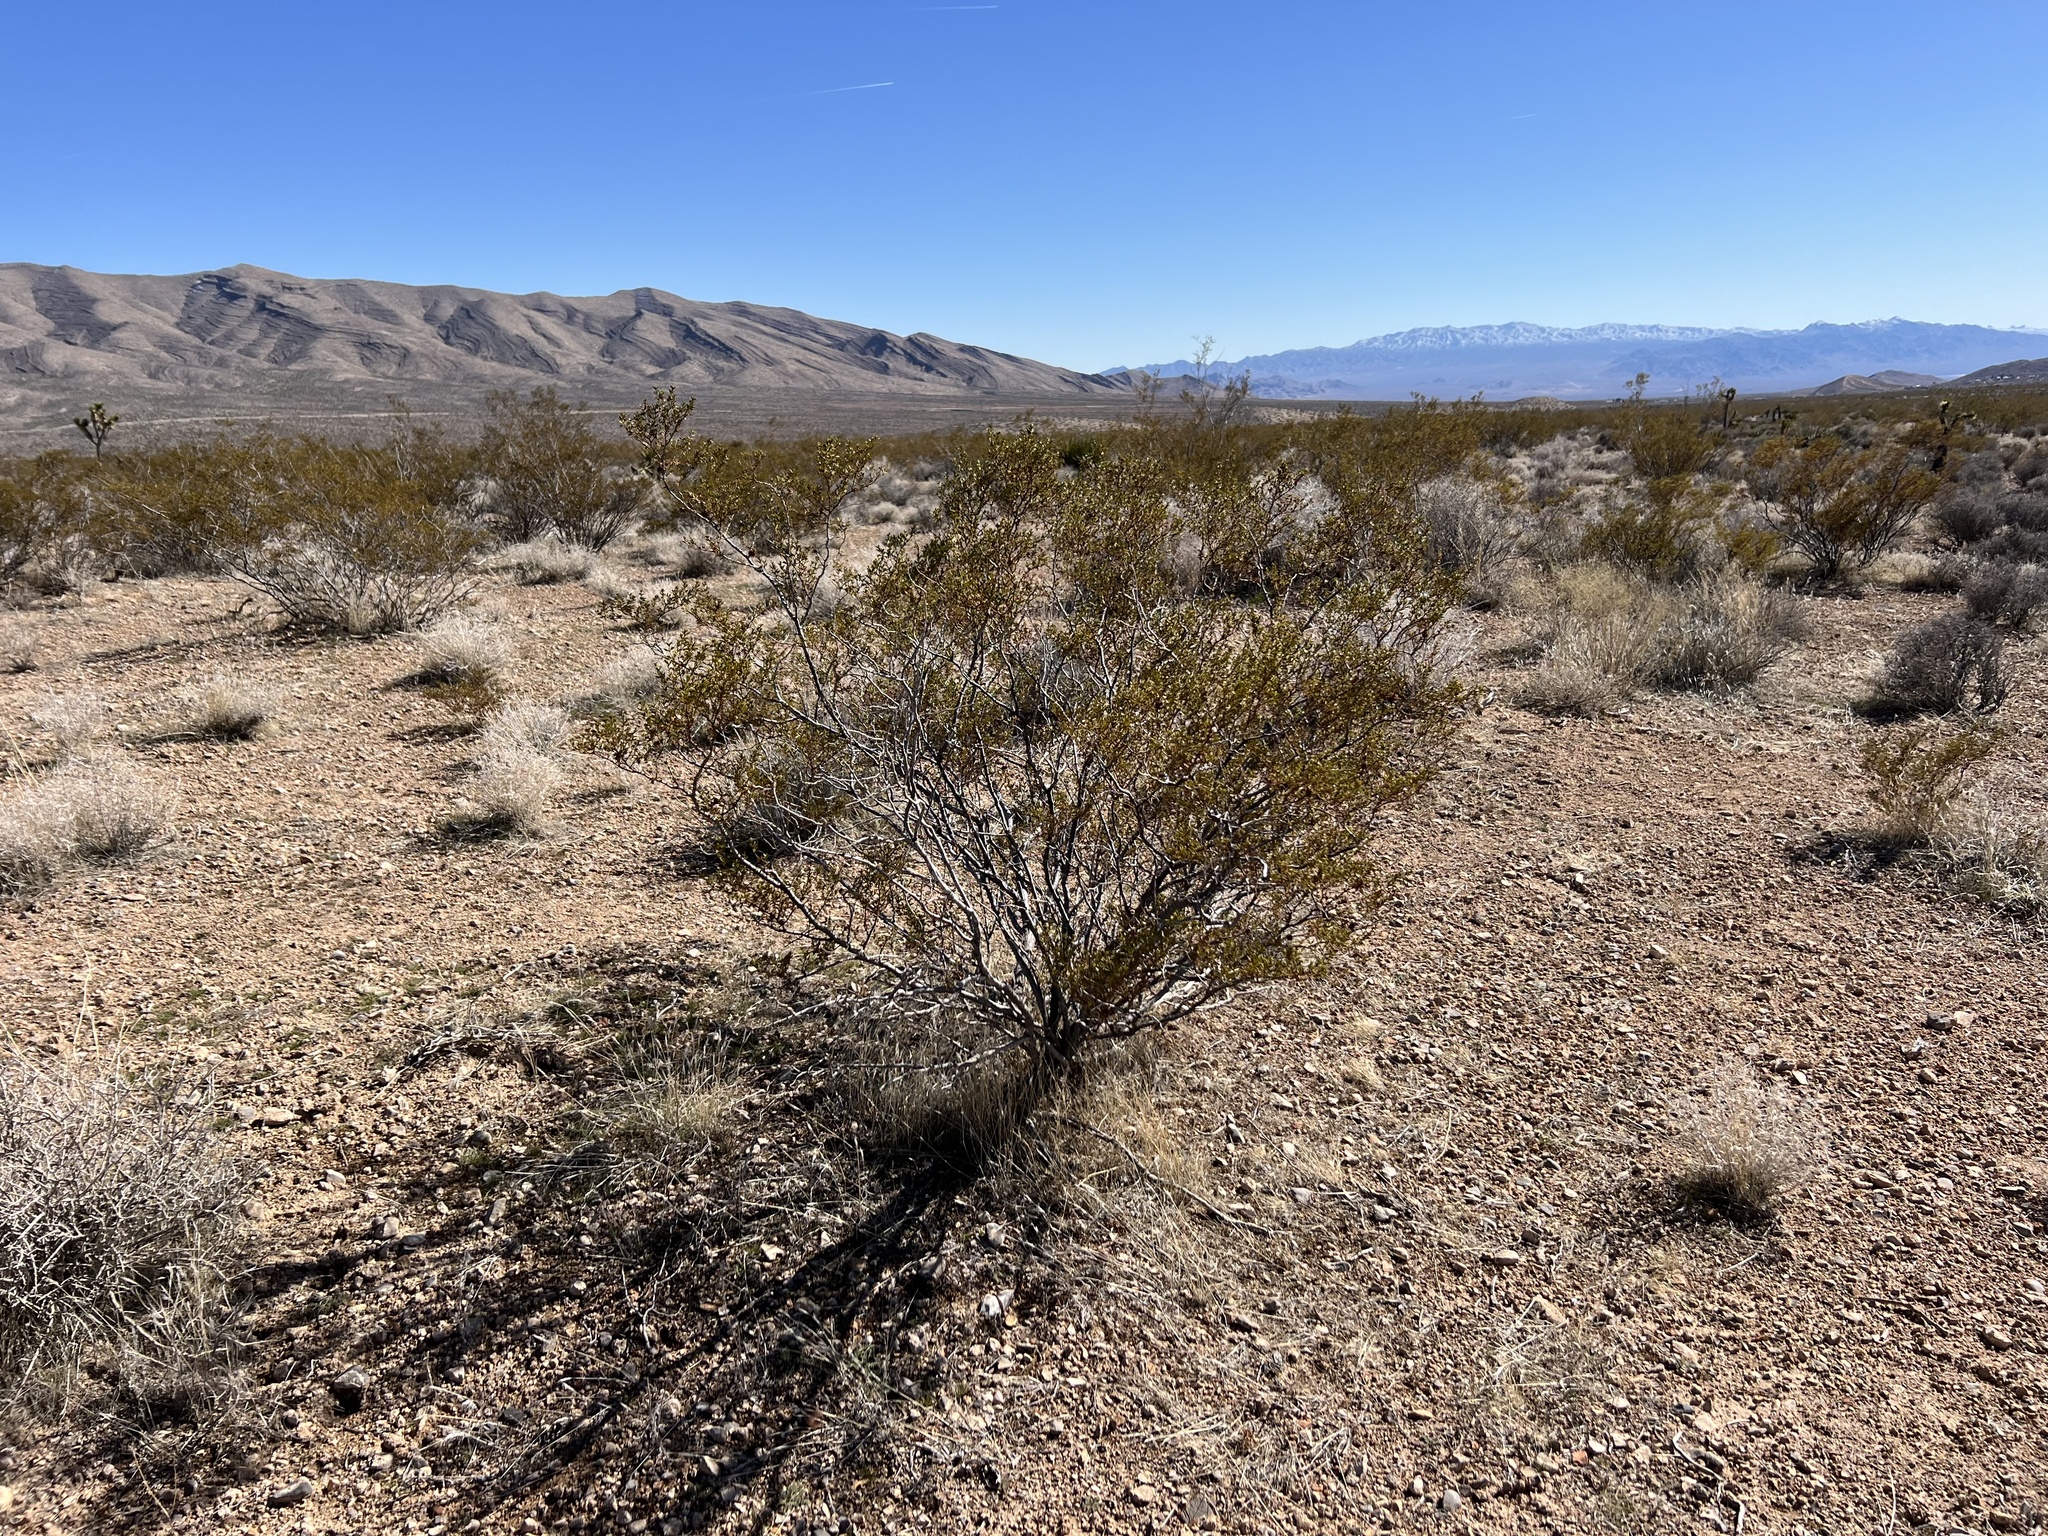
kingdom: Plantae
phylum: Tracheophyta
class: Magnoliopsida
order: Zygophyllales
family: Zygophyllaceae
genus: Larrea
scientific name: Larrea tridentata
